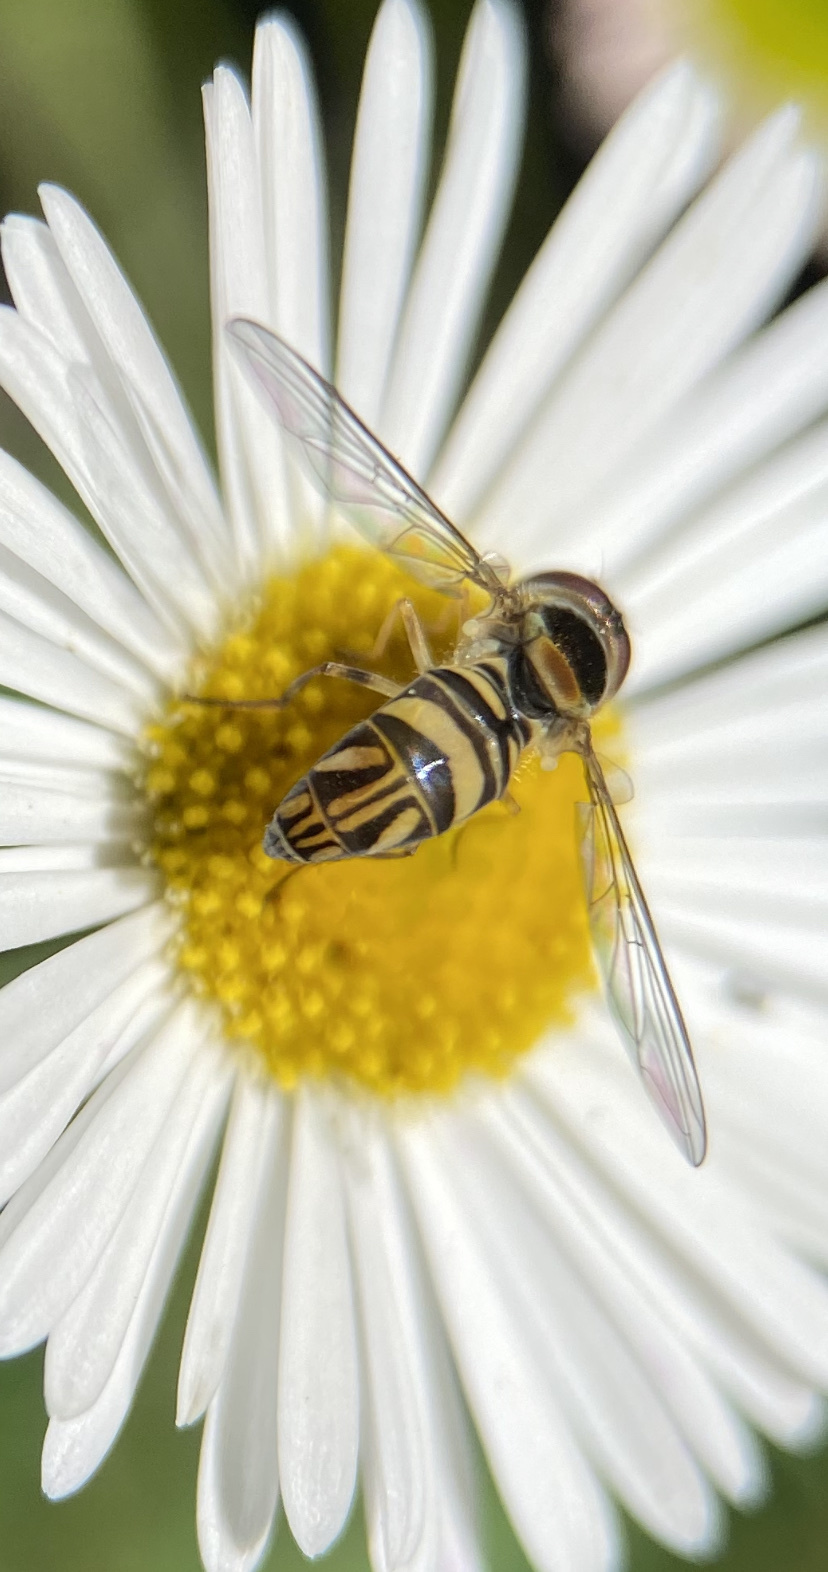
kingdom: Animalia
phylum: Arthropoda
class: Insecta
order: Diptera
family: Syrphidae
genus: Allograpta
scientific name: Allograpta obliqua
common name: Common oblique syrphid
